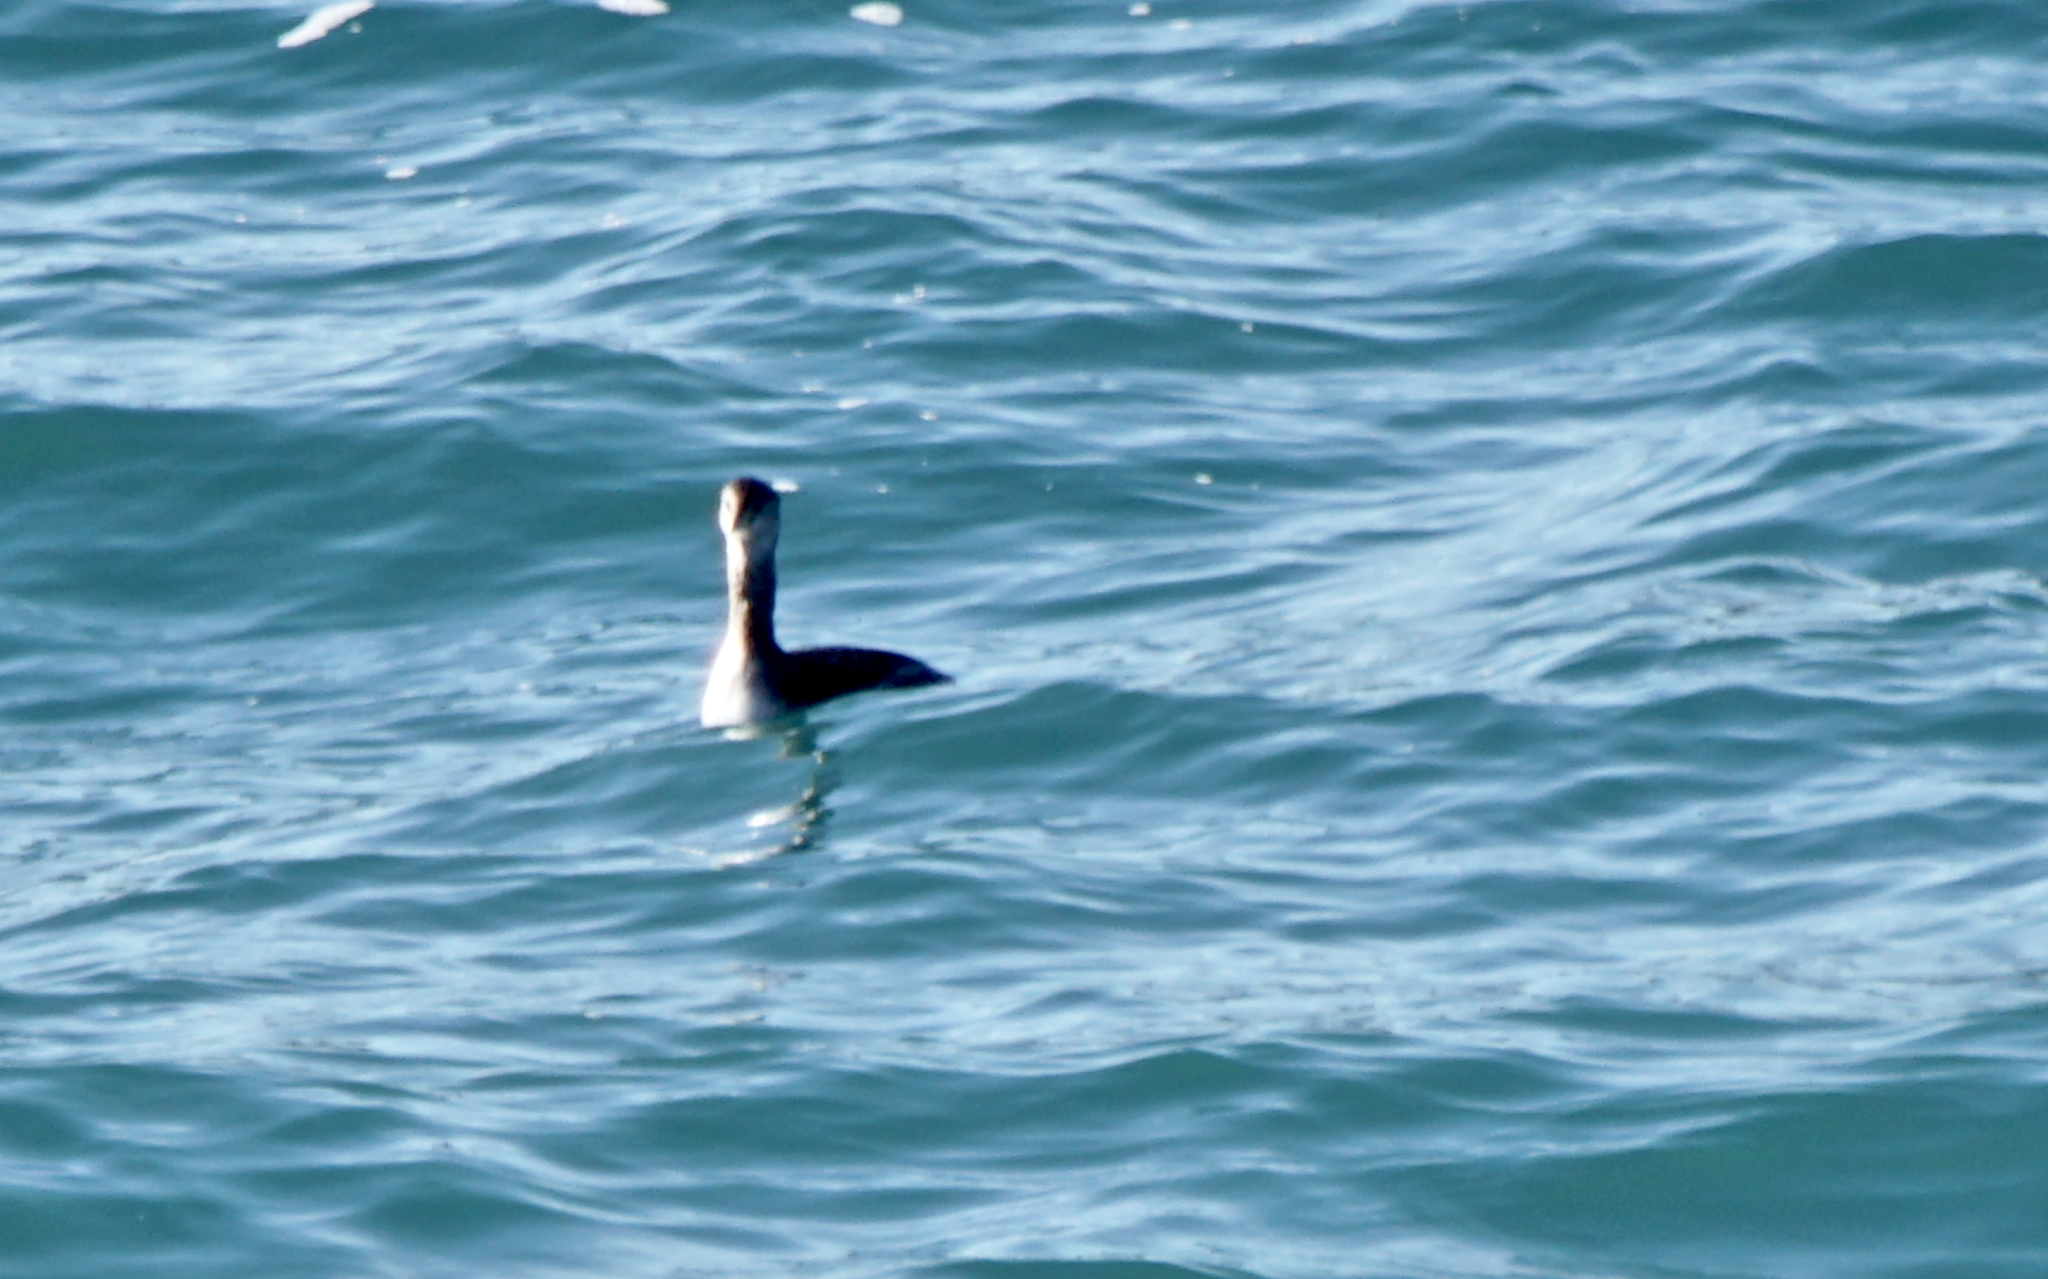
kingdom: Animalia
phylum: Chordata
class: Aves
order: Podicipediformes
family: Podicipedidae
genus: Podiceps
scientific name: Podiceps grisegena
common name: Red-necked grebe
